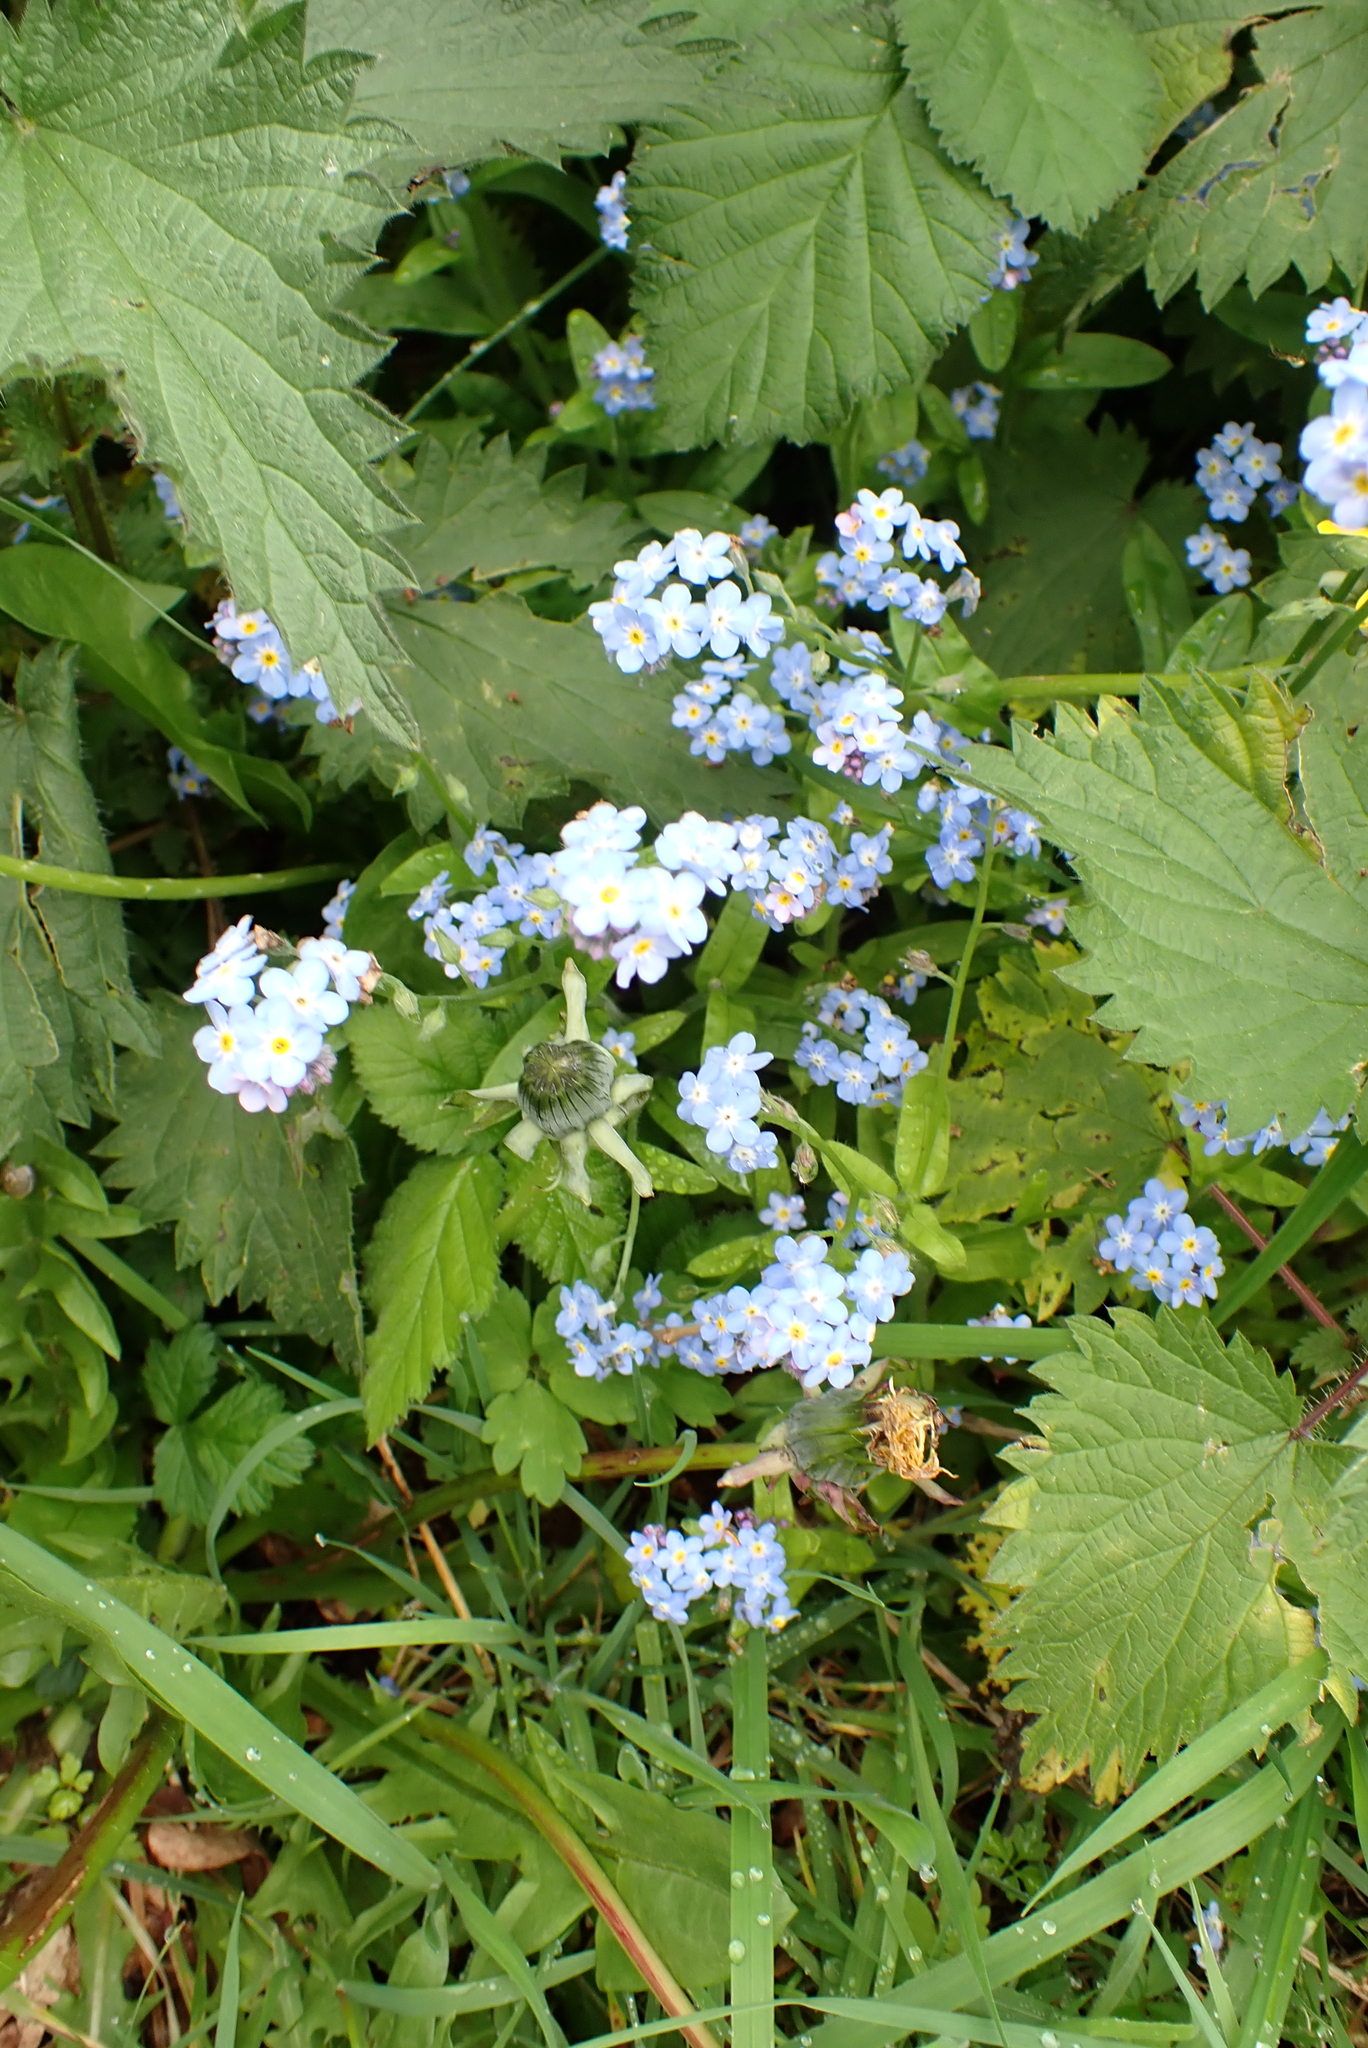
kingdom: Plantae
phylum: Tracheophyta
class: Magnoliopsida
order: Boraginales
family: Boraginaceae
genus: Myosotis
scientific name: Myosotis sylvatica
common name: Wood forget-me-not
